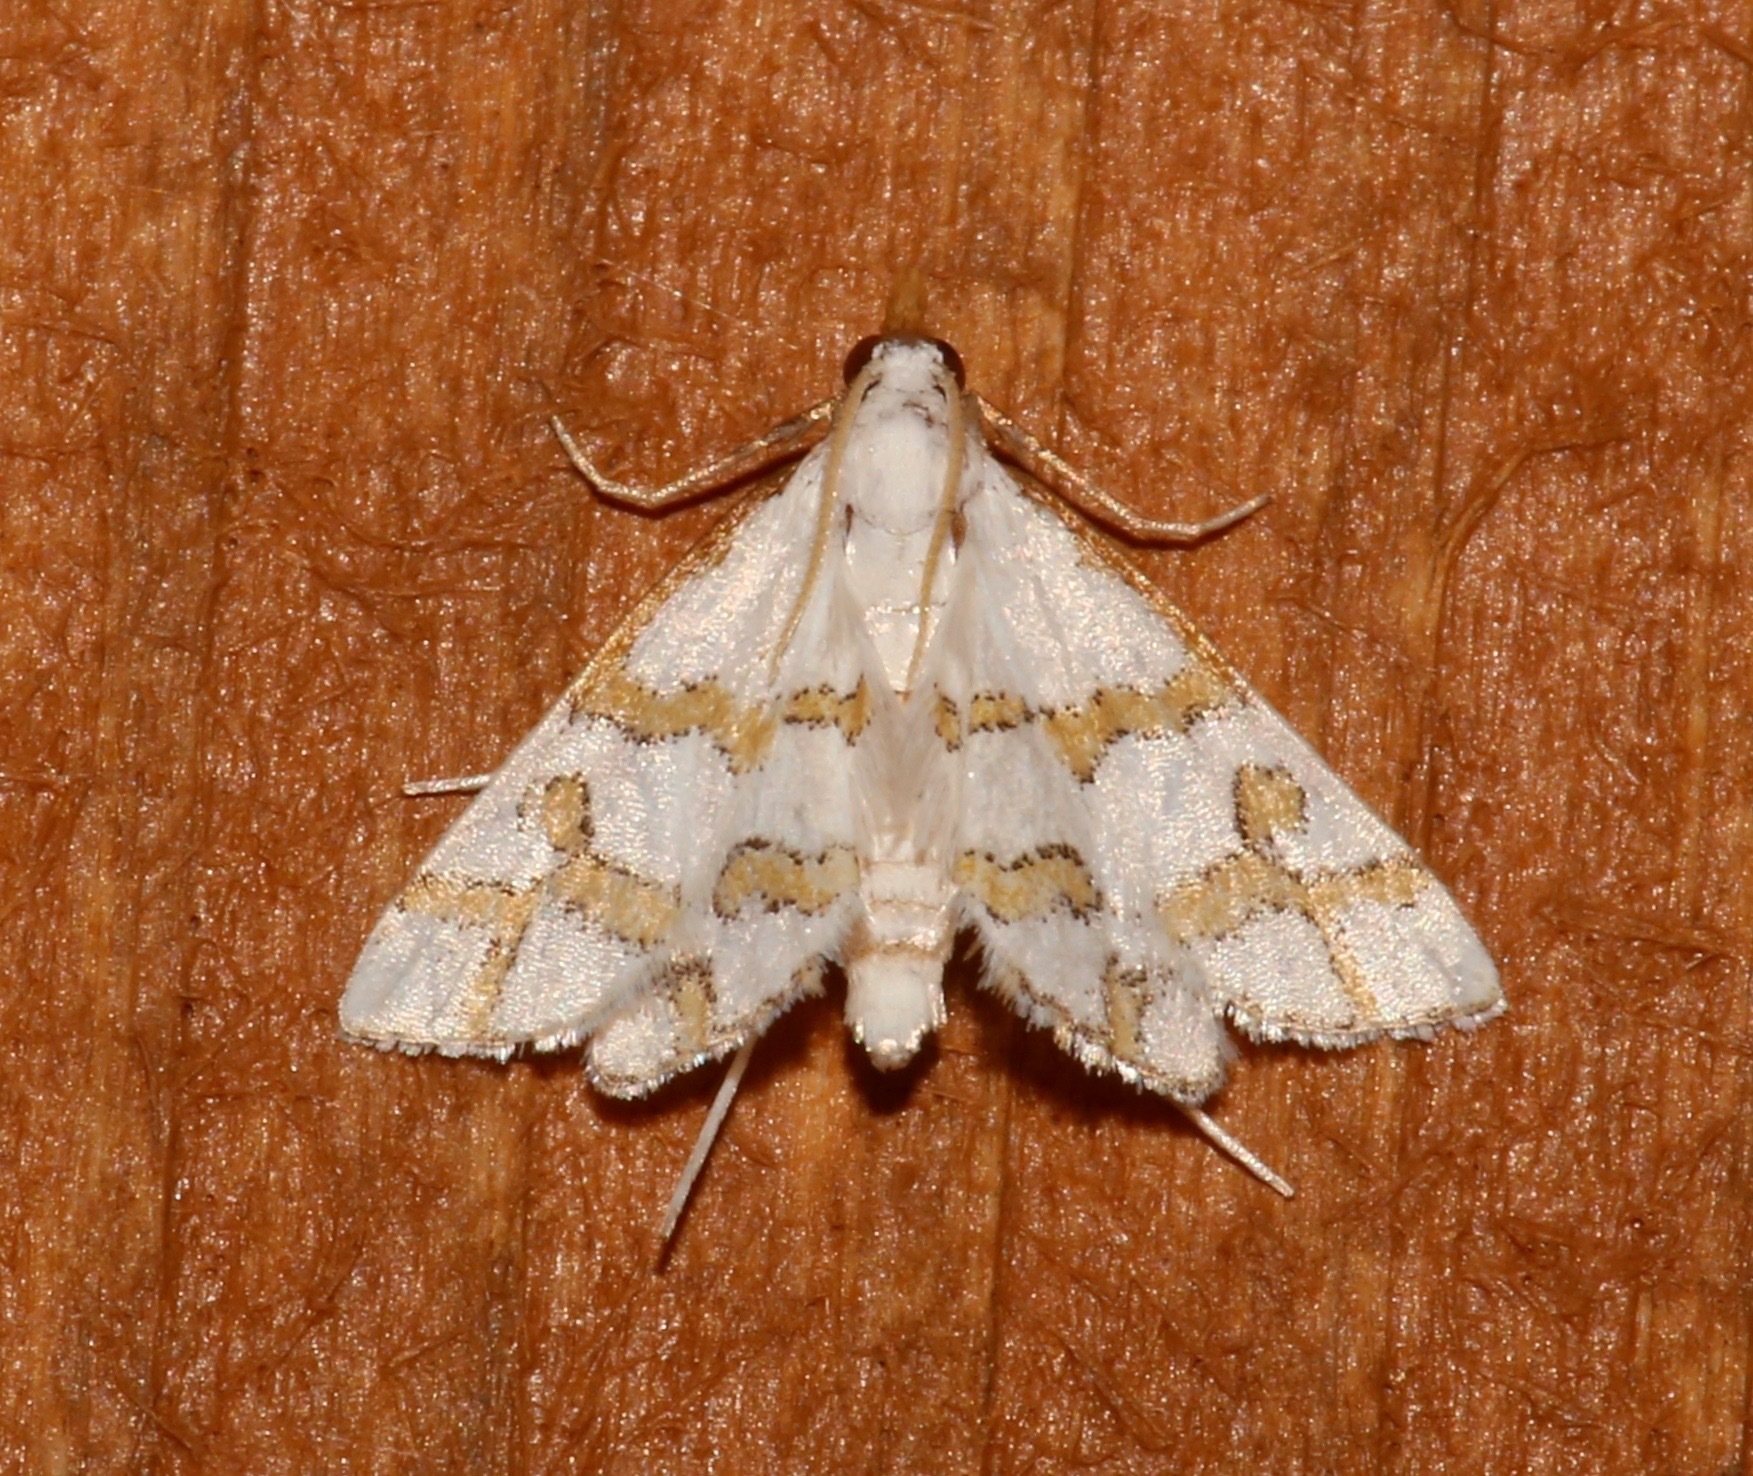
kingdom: Animalia
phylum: Arthropoda
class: Insecta
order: Lepidoptera
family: Crambidae
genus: Leptosteges
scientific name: Leptosteges
